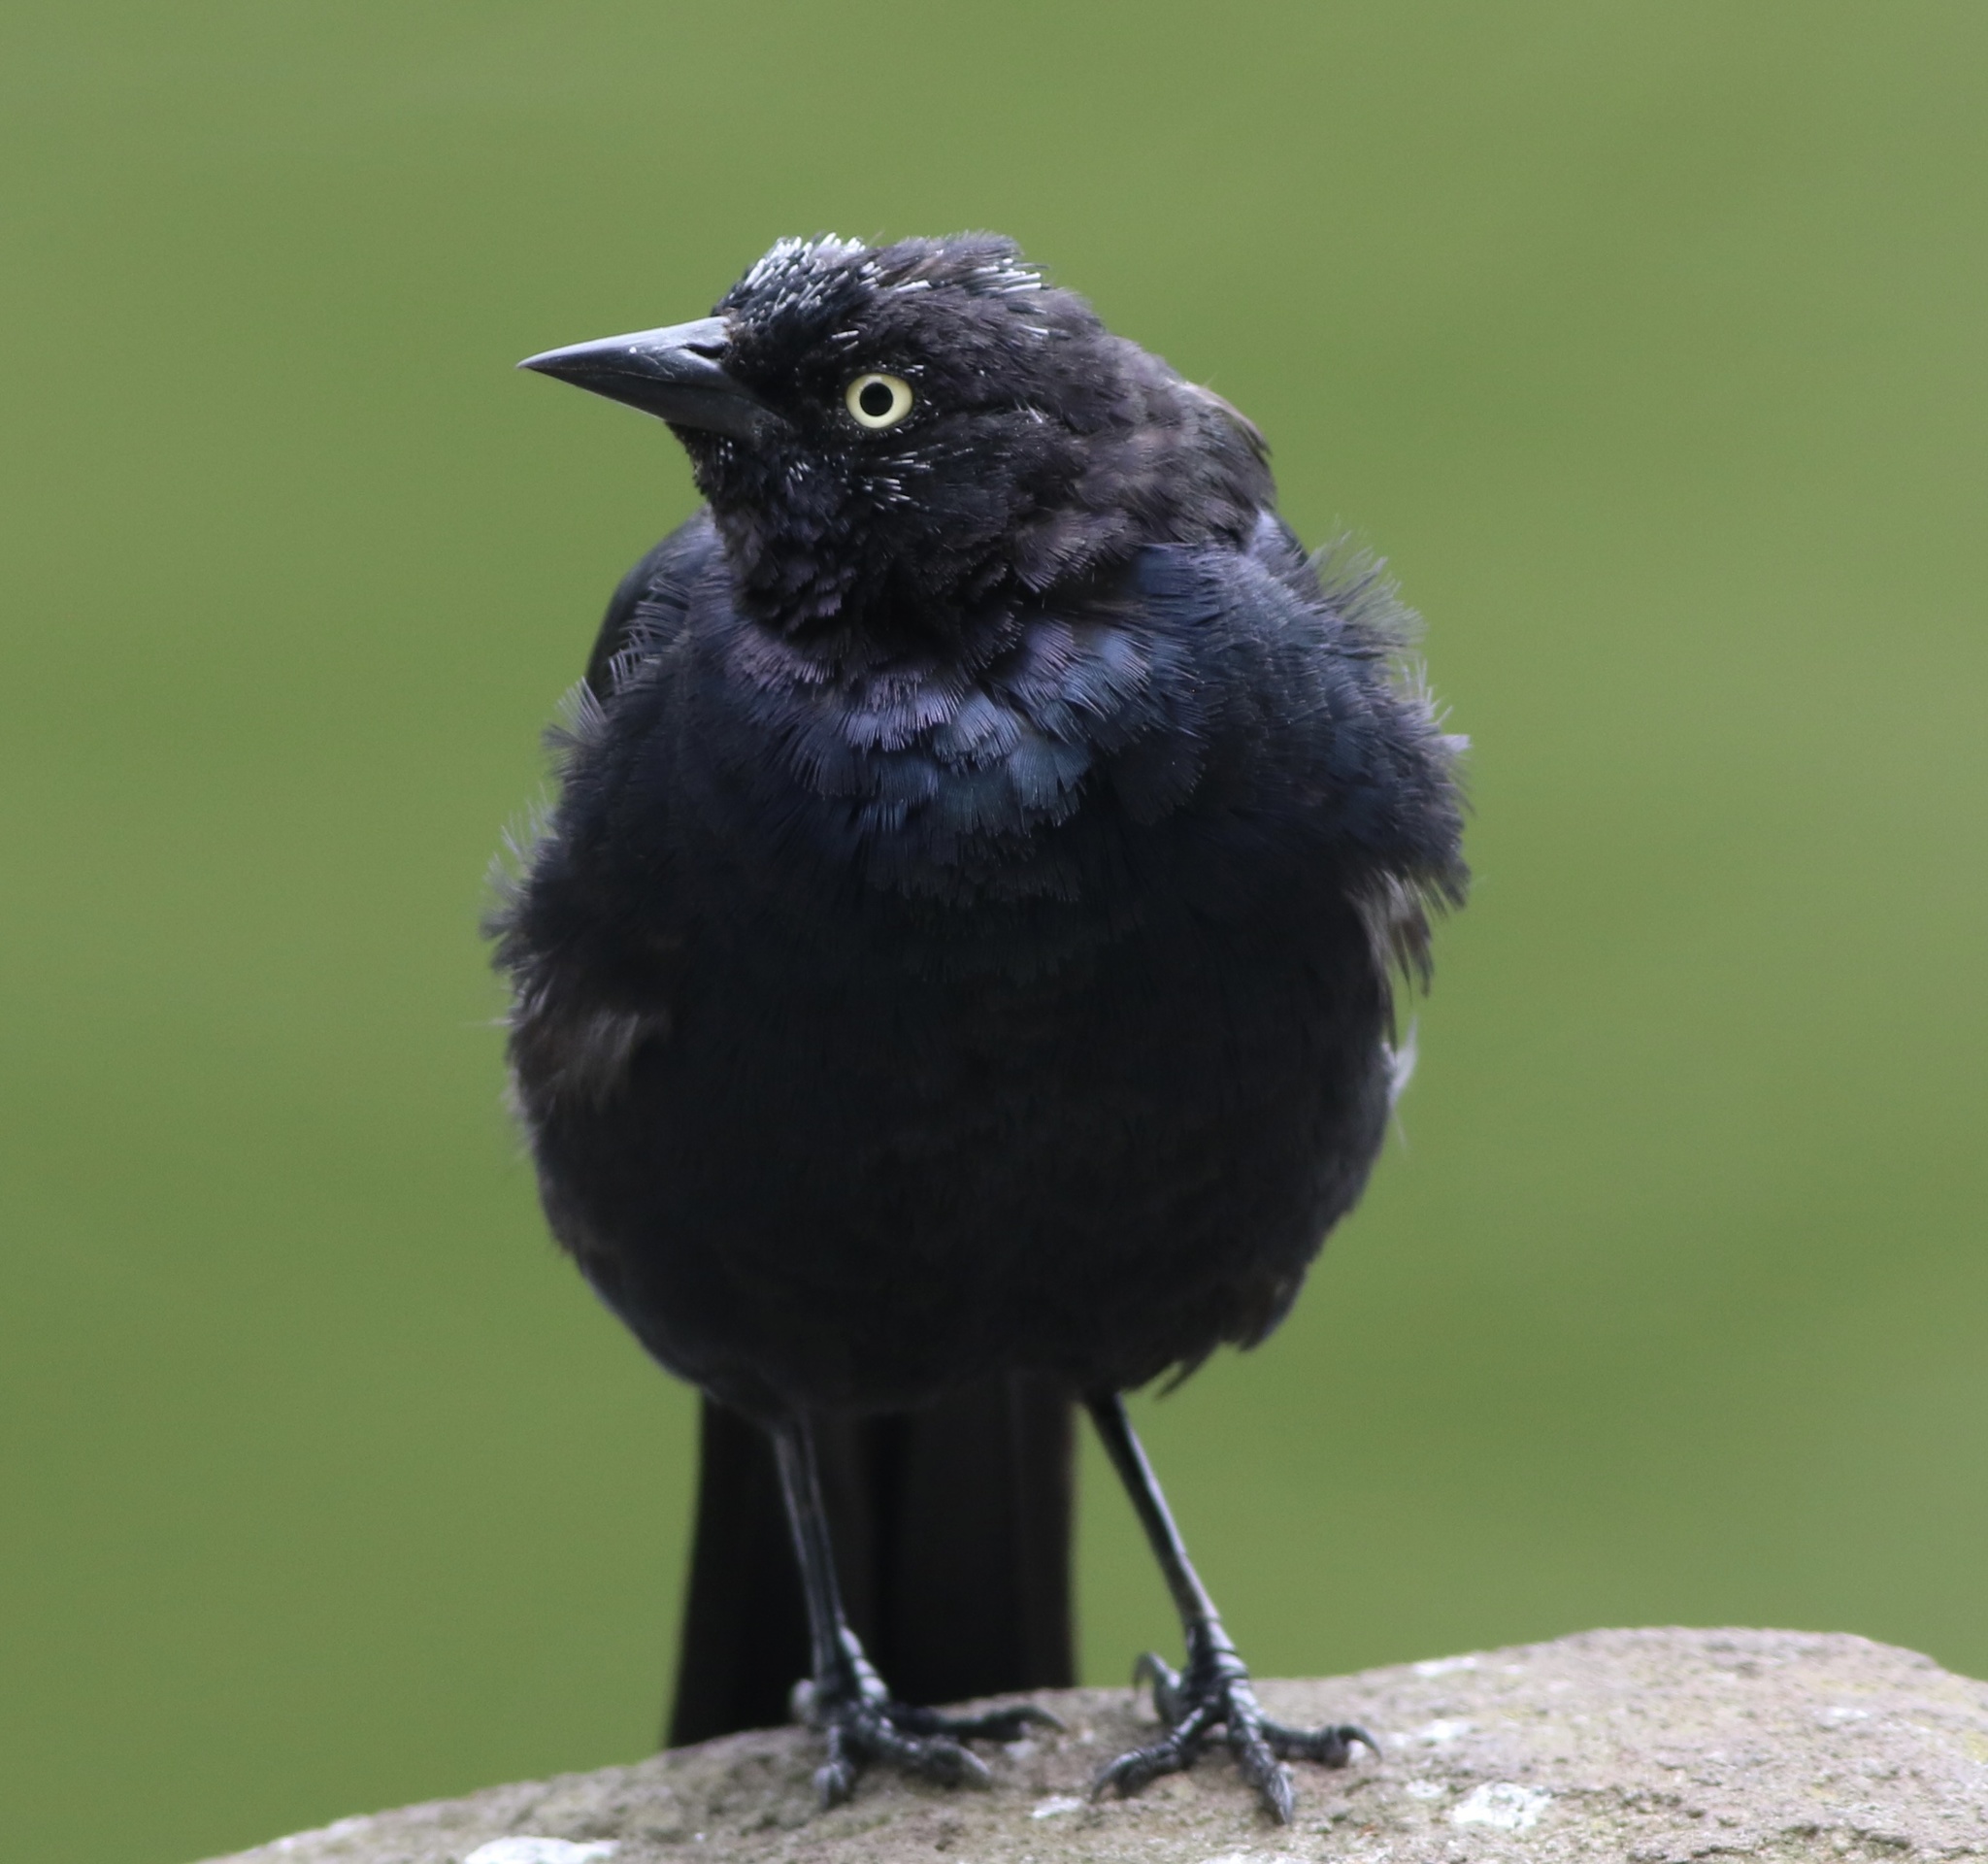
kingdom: Animalia
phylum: Chordata
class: Aves
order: Passeriformes
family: Icteridae
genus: Euphagus
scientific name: Euphagus cyanocephalus
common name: Brewer's blackbird
